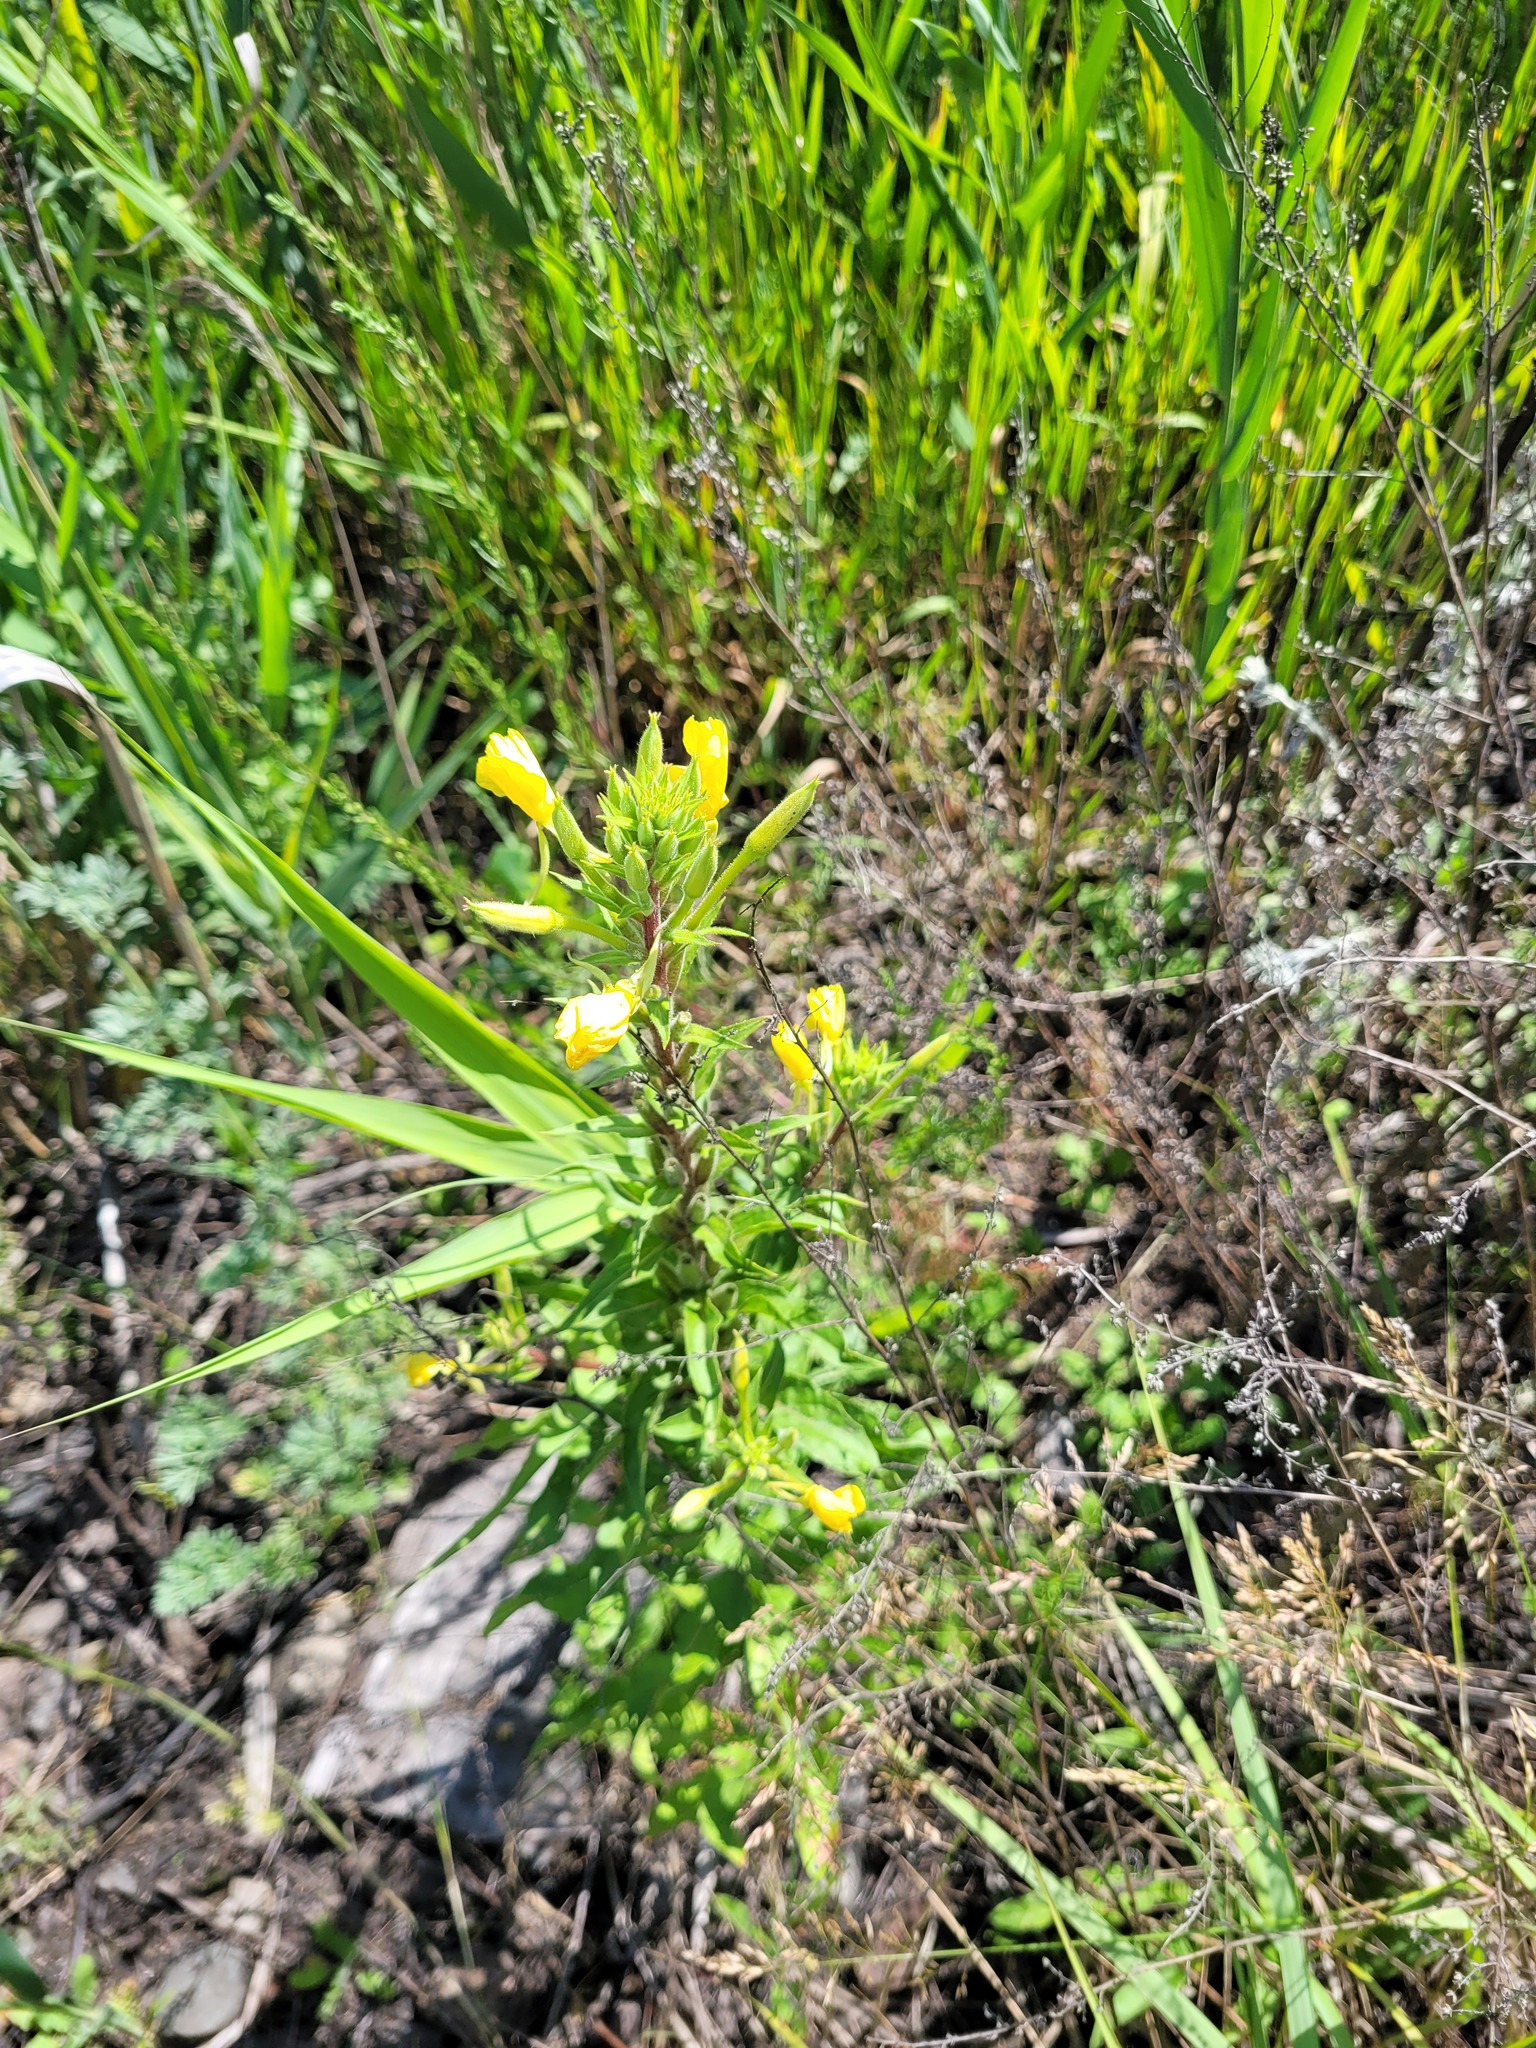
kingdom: Plantae
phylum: Tracheophyta
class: Magnoliopsida
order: Myrtales
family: Onagraceae
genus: Oenothera
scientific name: Oenothera rubricaulis
